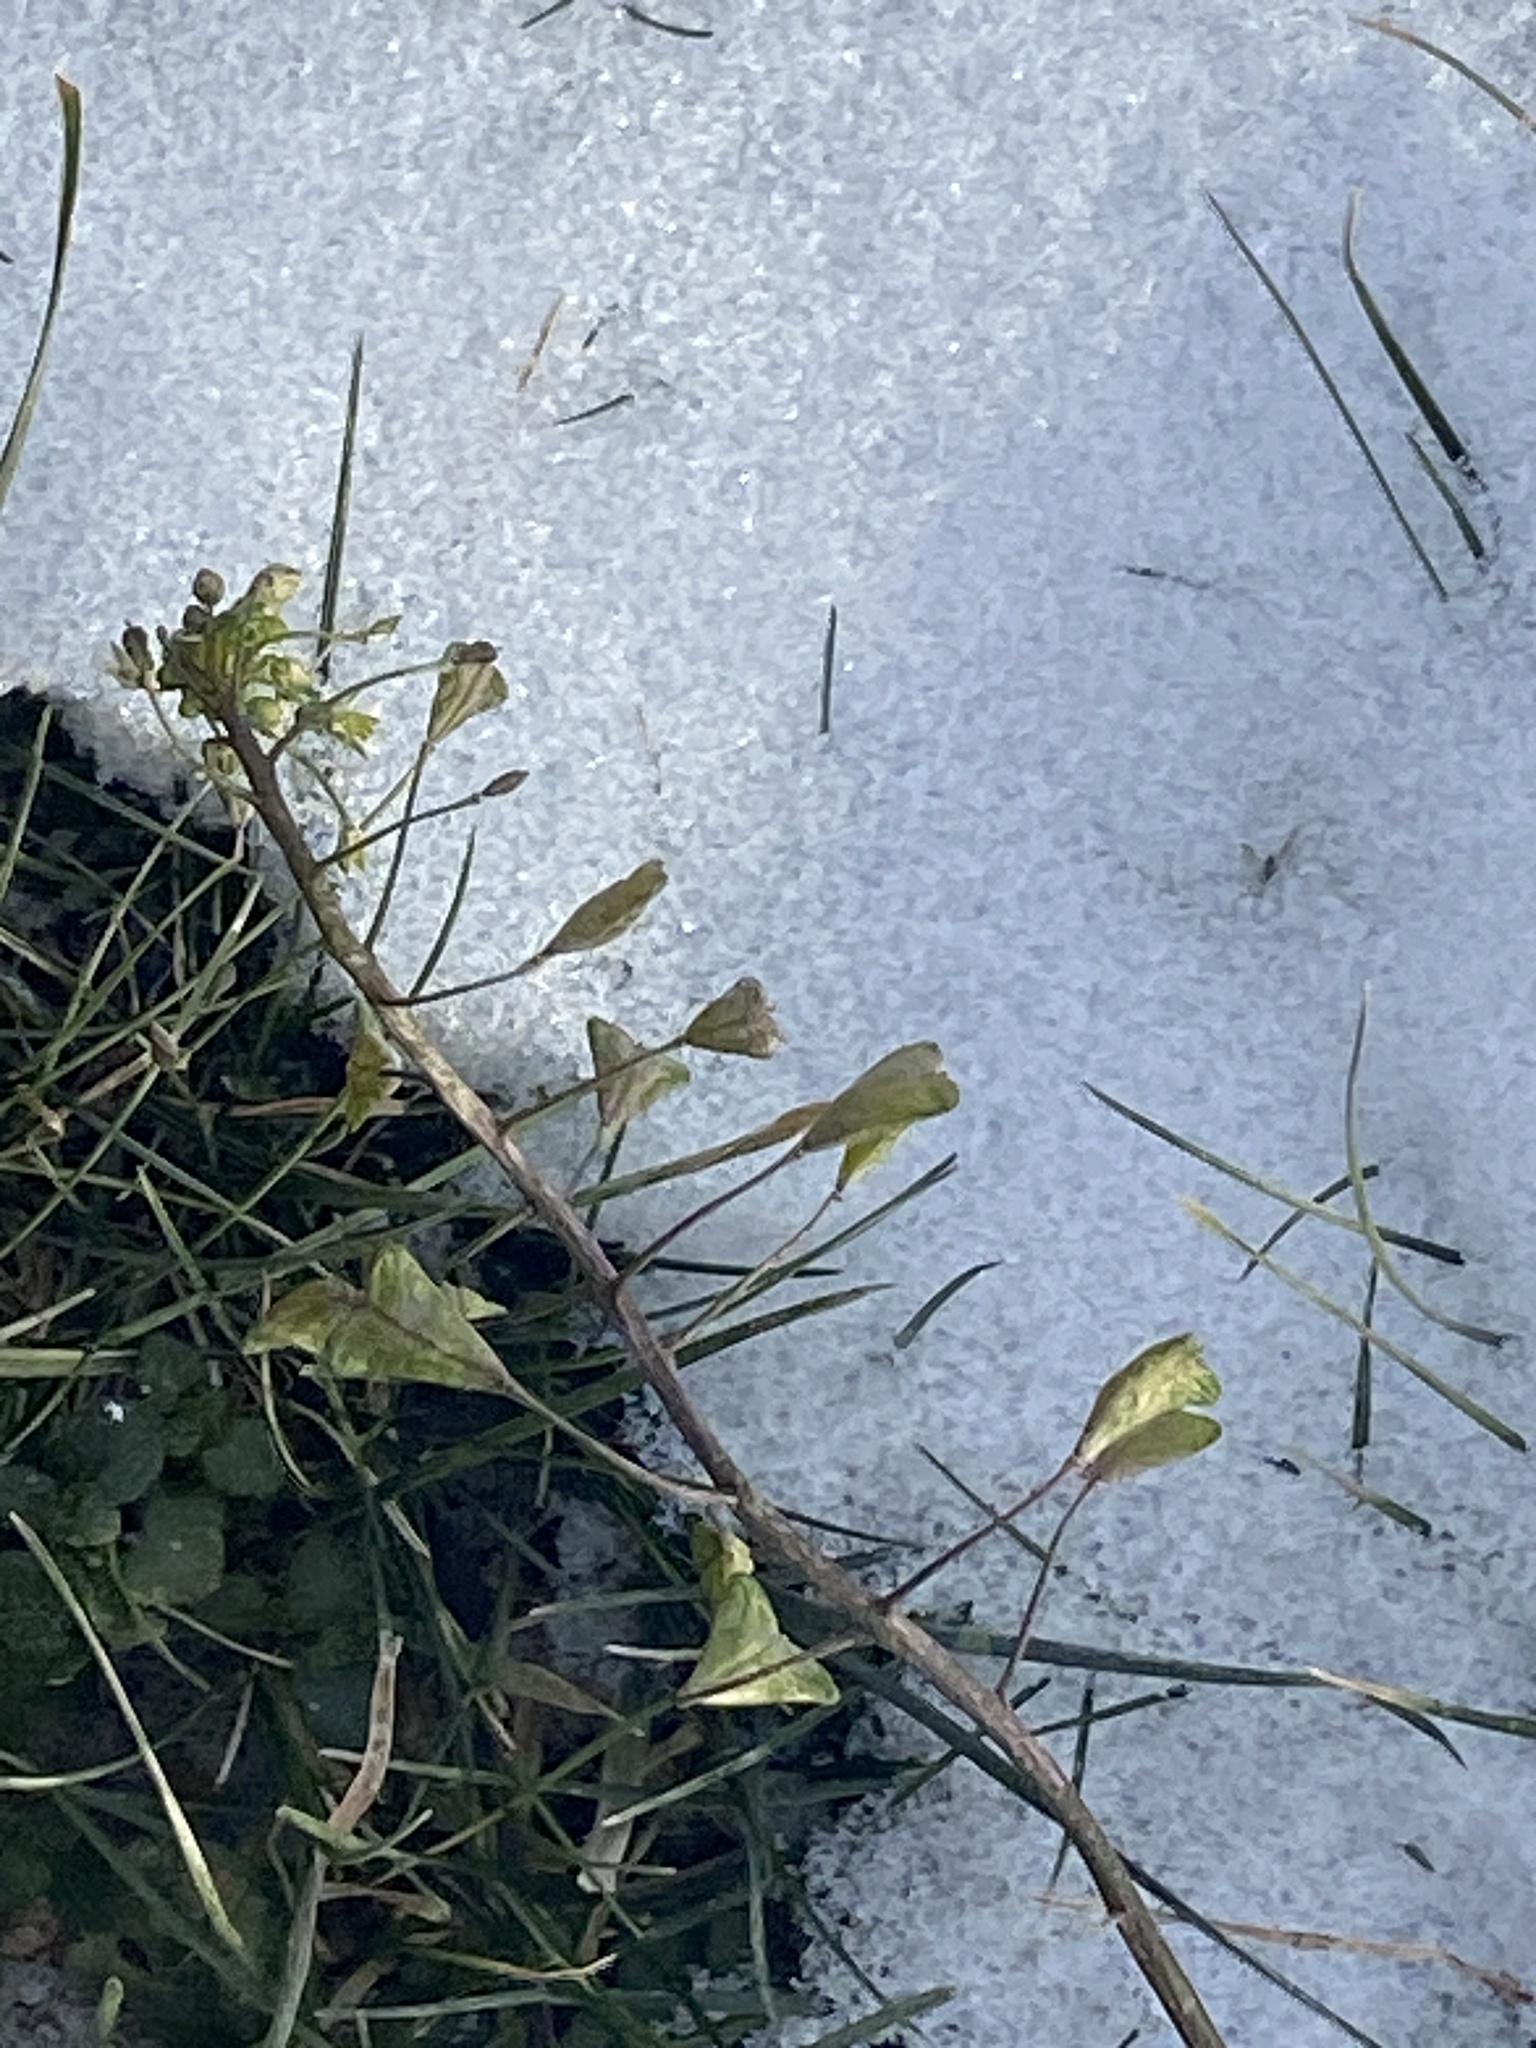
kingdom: Plantae
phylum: Tracheophyta
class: Magnoliopsida
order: Brassicales
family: Brassicaceae
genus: Capsella
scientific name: Capsella bursa-pastoris
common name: Shepherd's purse
